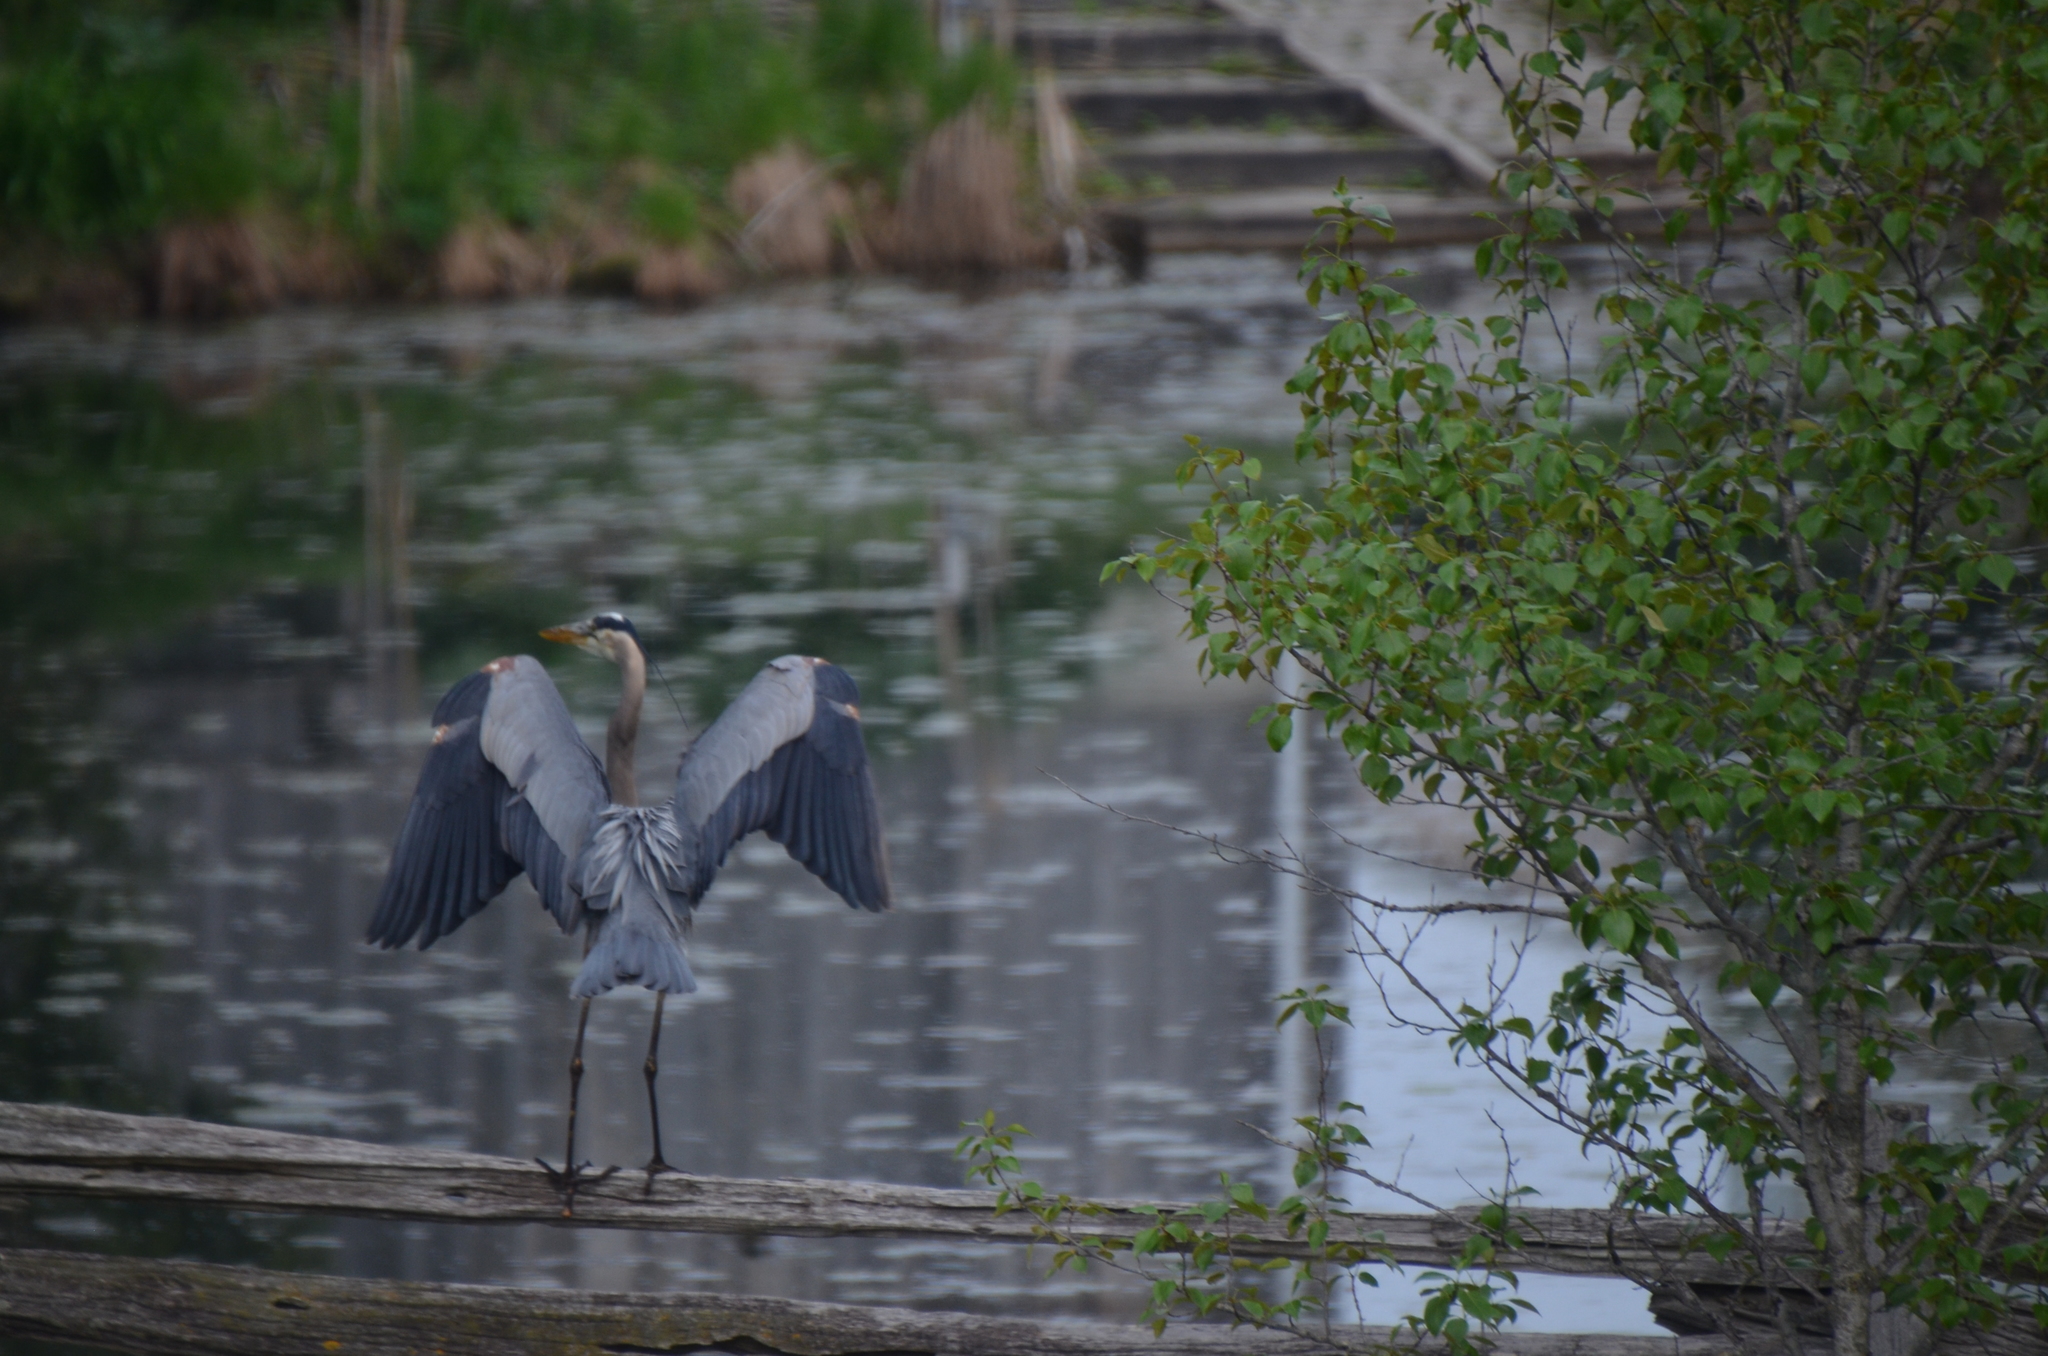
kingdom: Animalia
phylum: Chordata
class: Aves
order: Pelecaniformes
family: Ardeidae
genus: Ardea
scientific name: Ardea herodias
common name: Great blue heron
